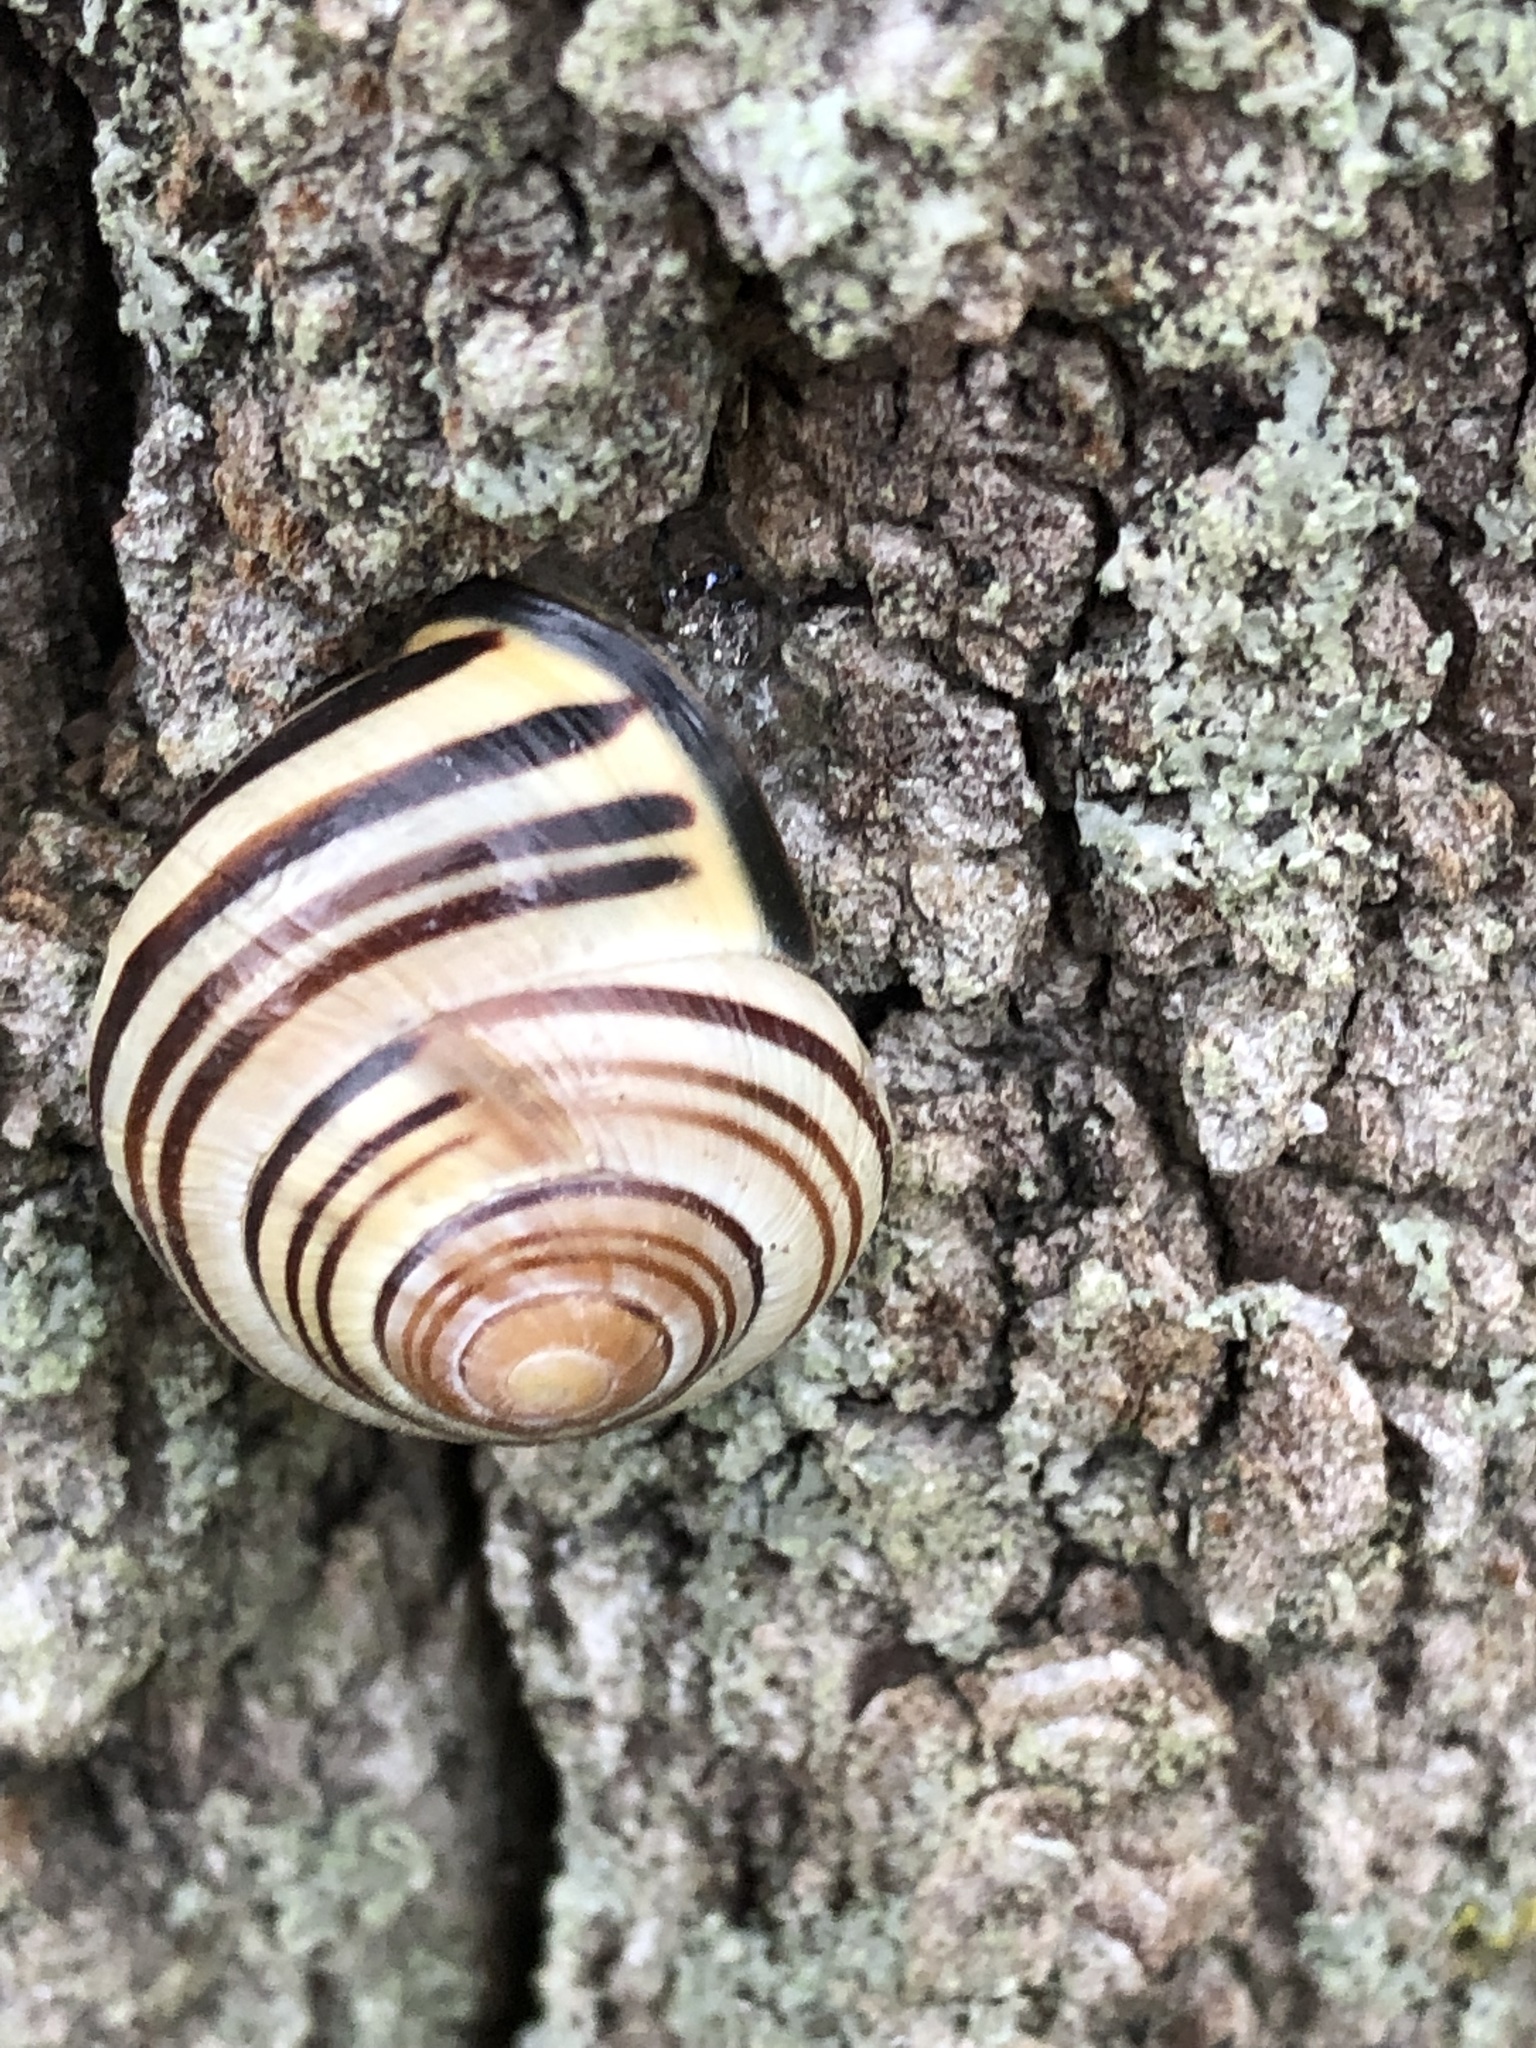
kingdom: Animalia
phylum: Mollusca
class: Gastropoda
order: Stylommatophora
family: Helicidae
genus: Cepaea
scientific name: Cepaea nemoralis
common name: Grovesnail
